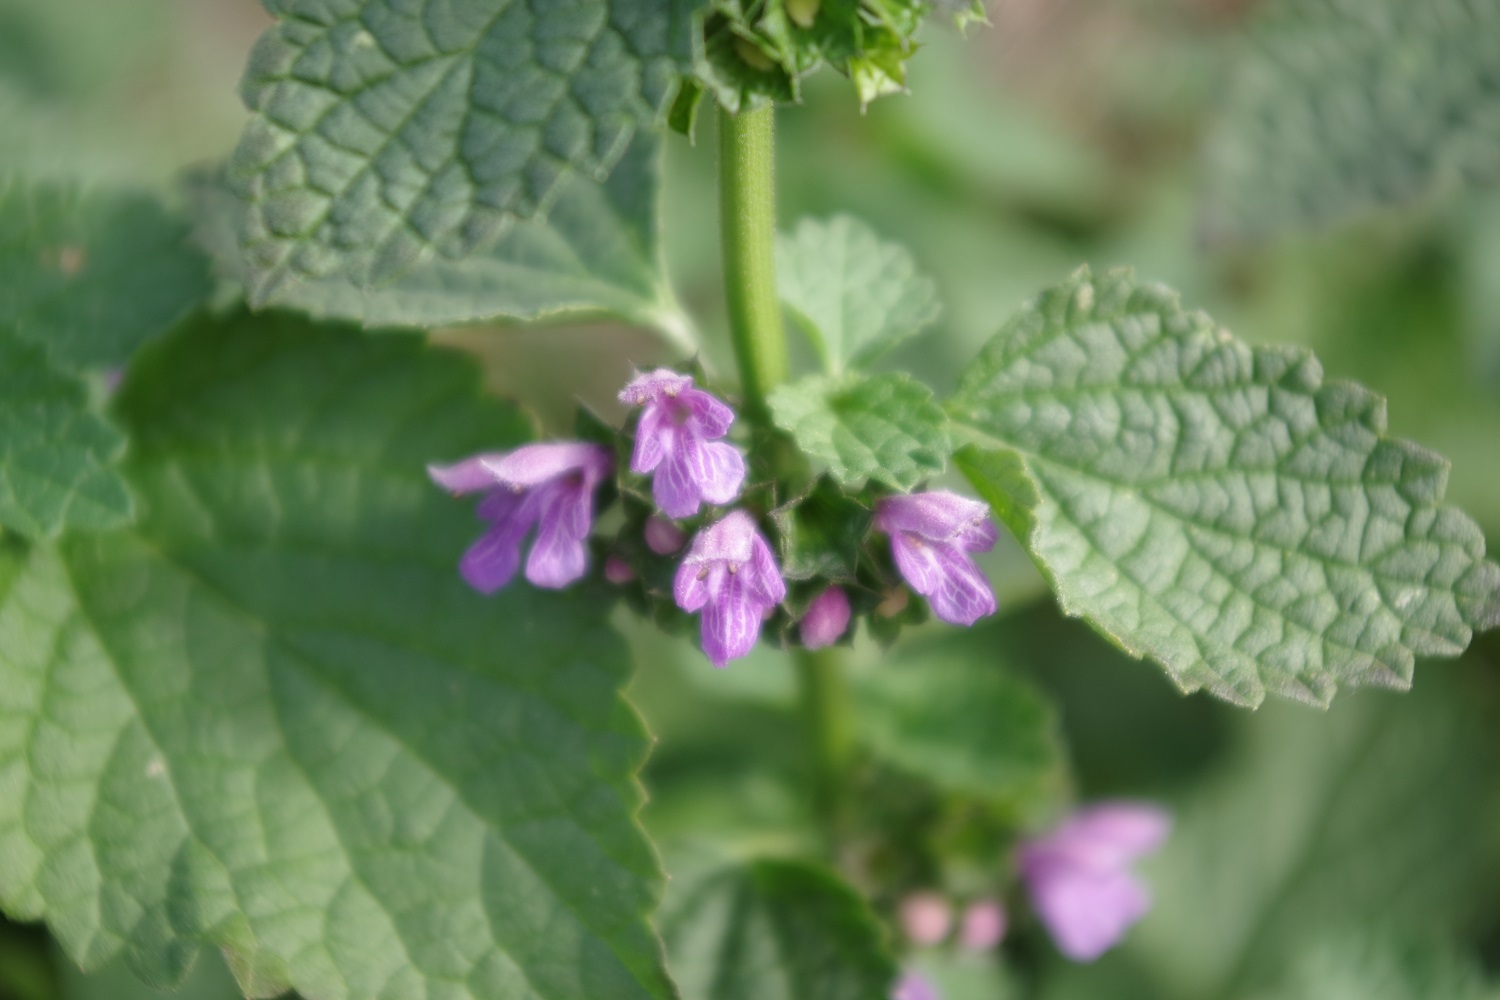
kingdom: Plantae
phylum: Tracheophyta
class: Magnoliopsida
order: Lamiales
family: Lamiaceae
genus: Ballota
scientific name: Ballota nigra
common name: Black horehound
